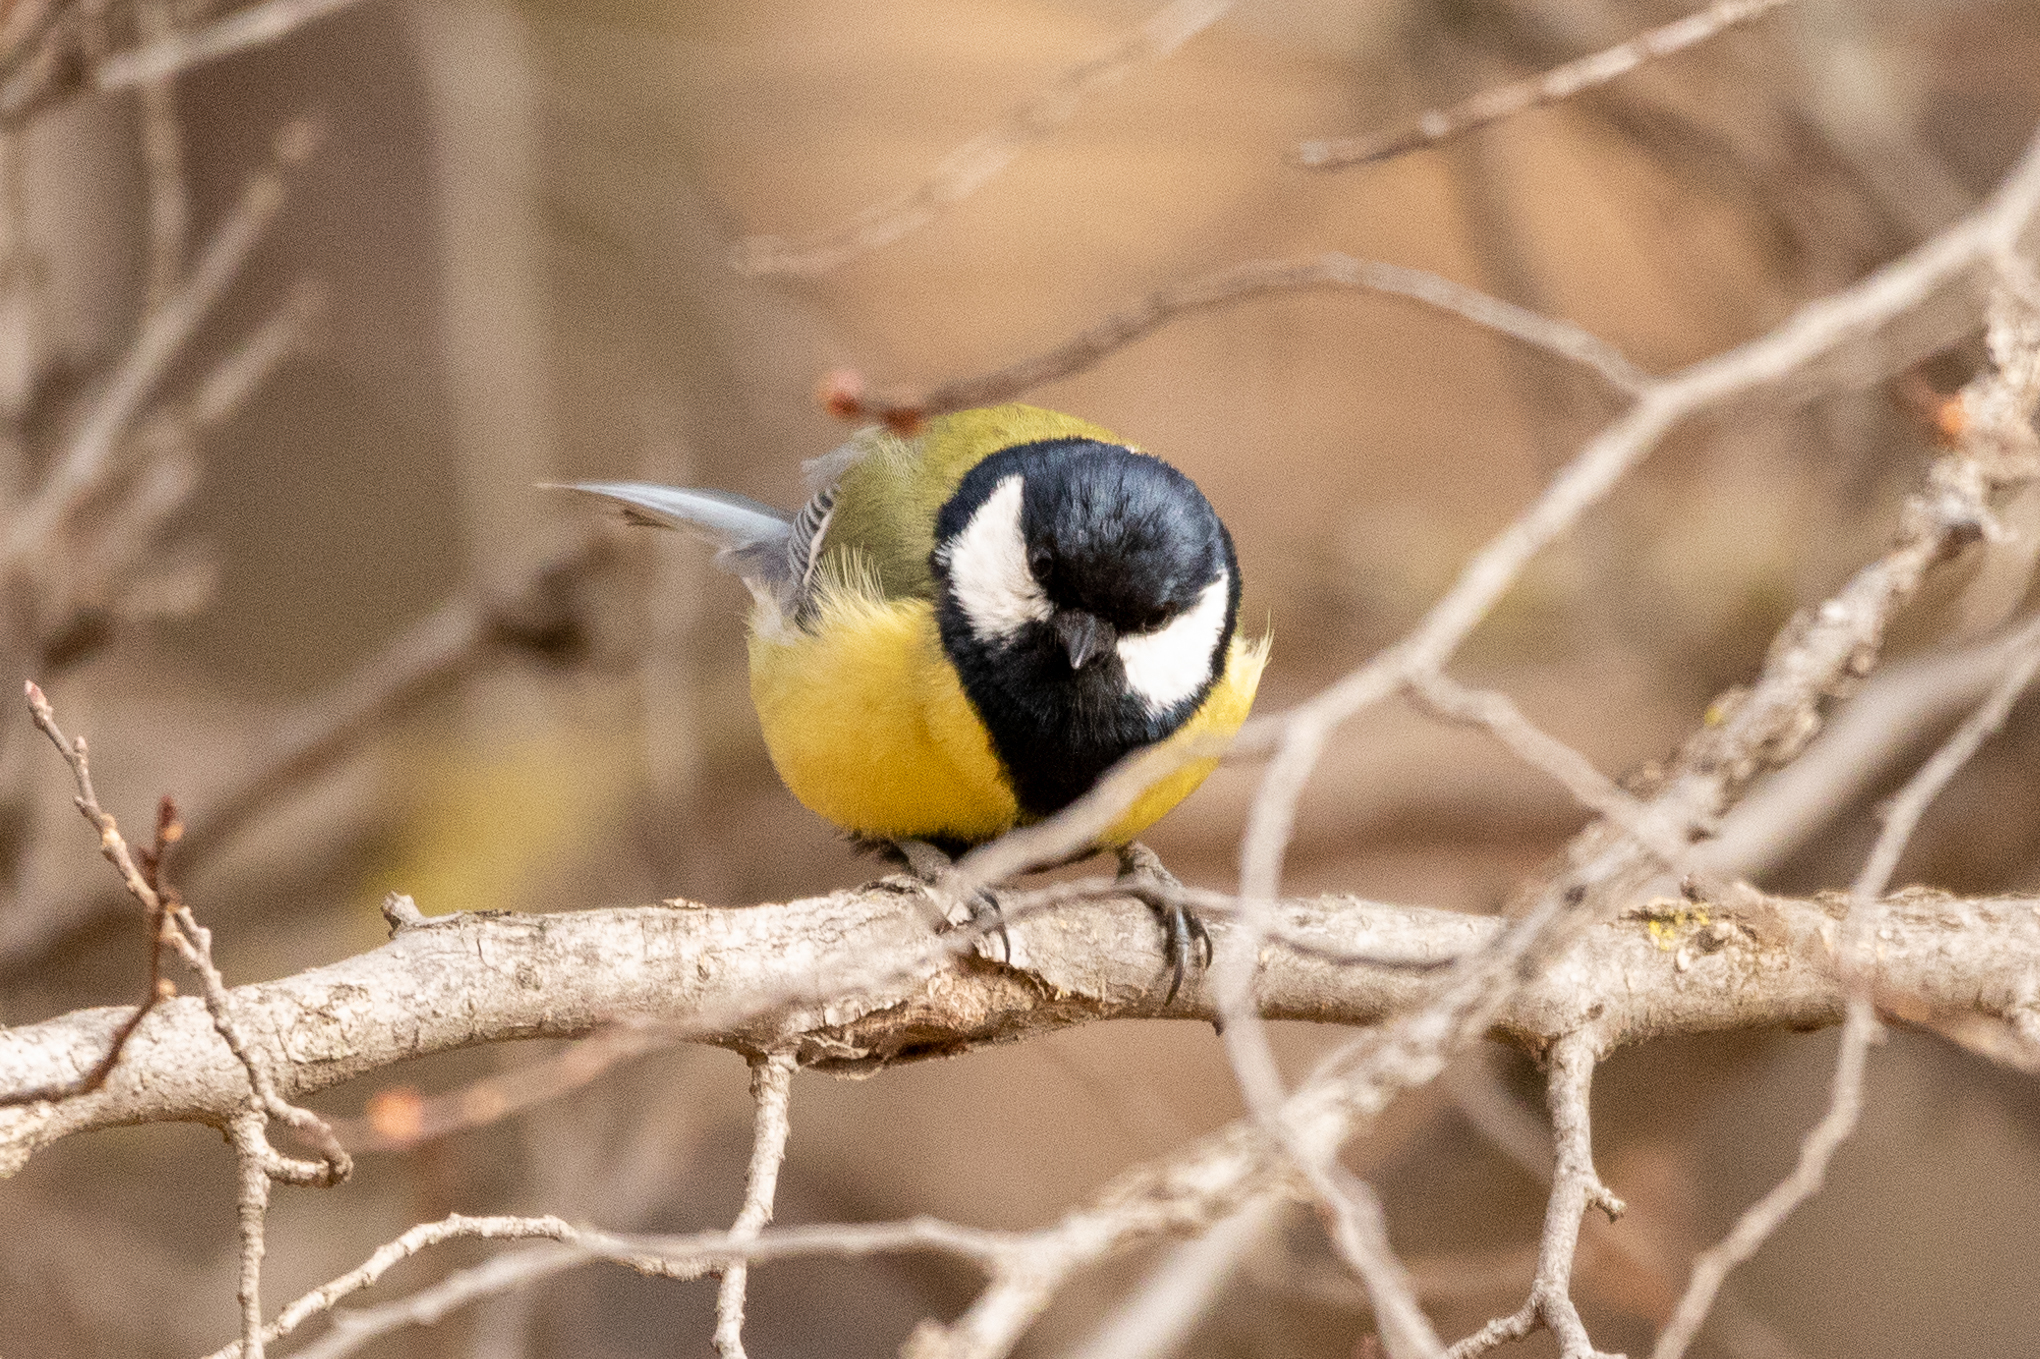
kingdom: Animalia
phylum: Chordata
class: Aves
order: Passeriformes
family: Paridae
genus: Parus
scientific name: Parus major
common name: Great tit
